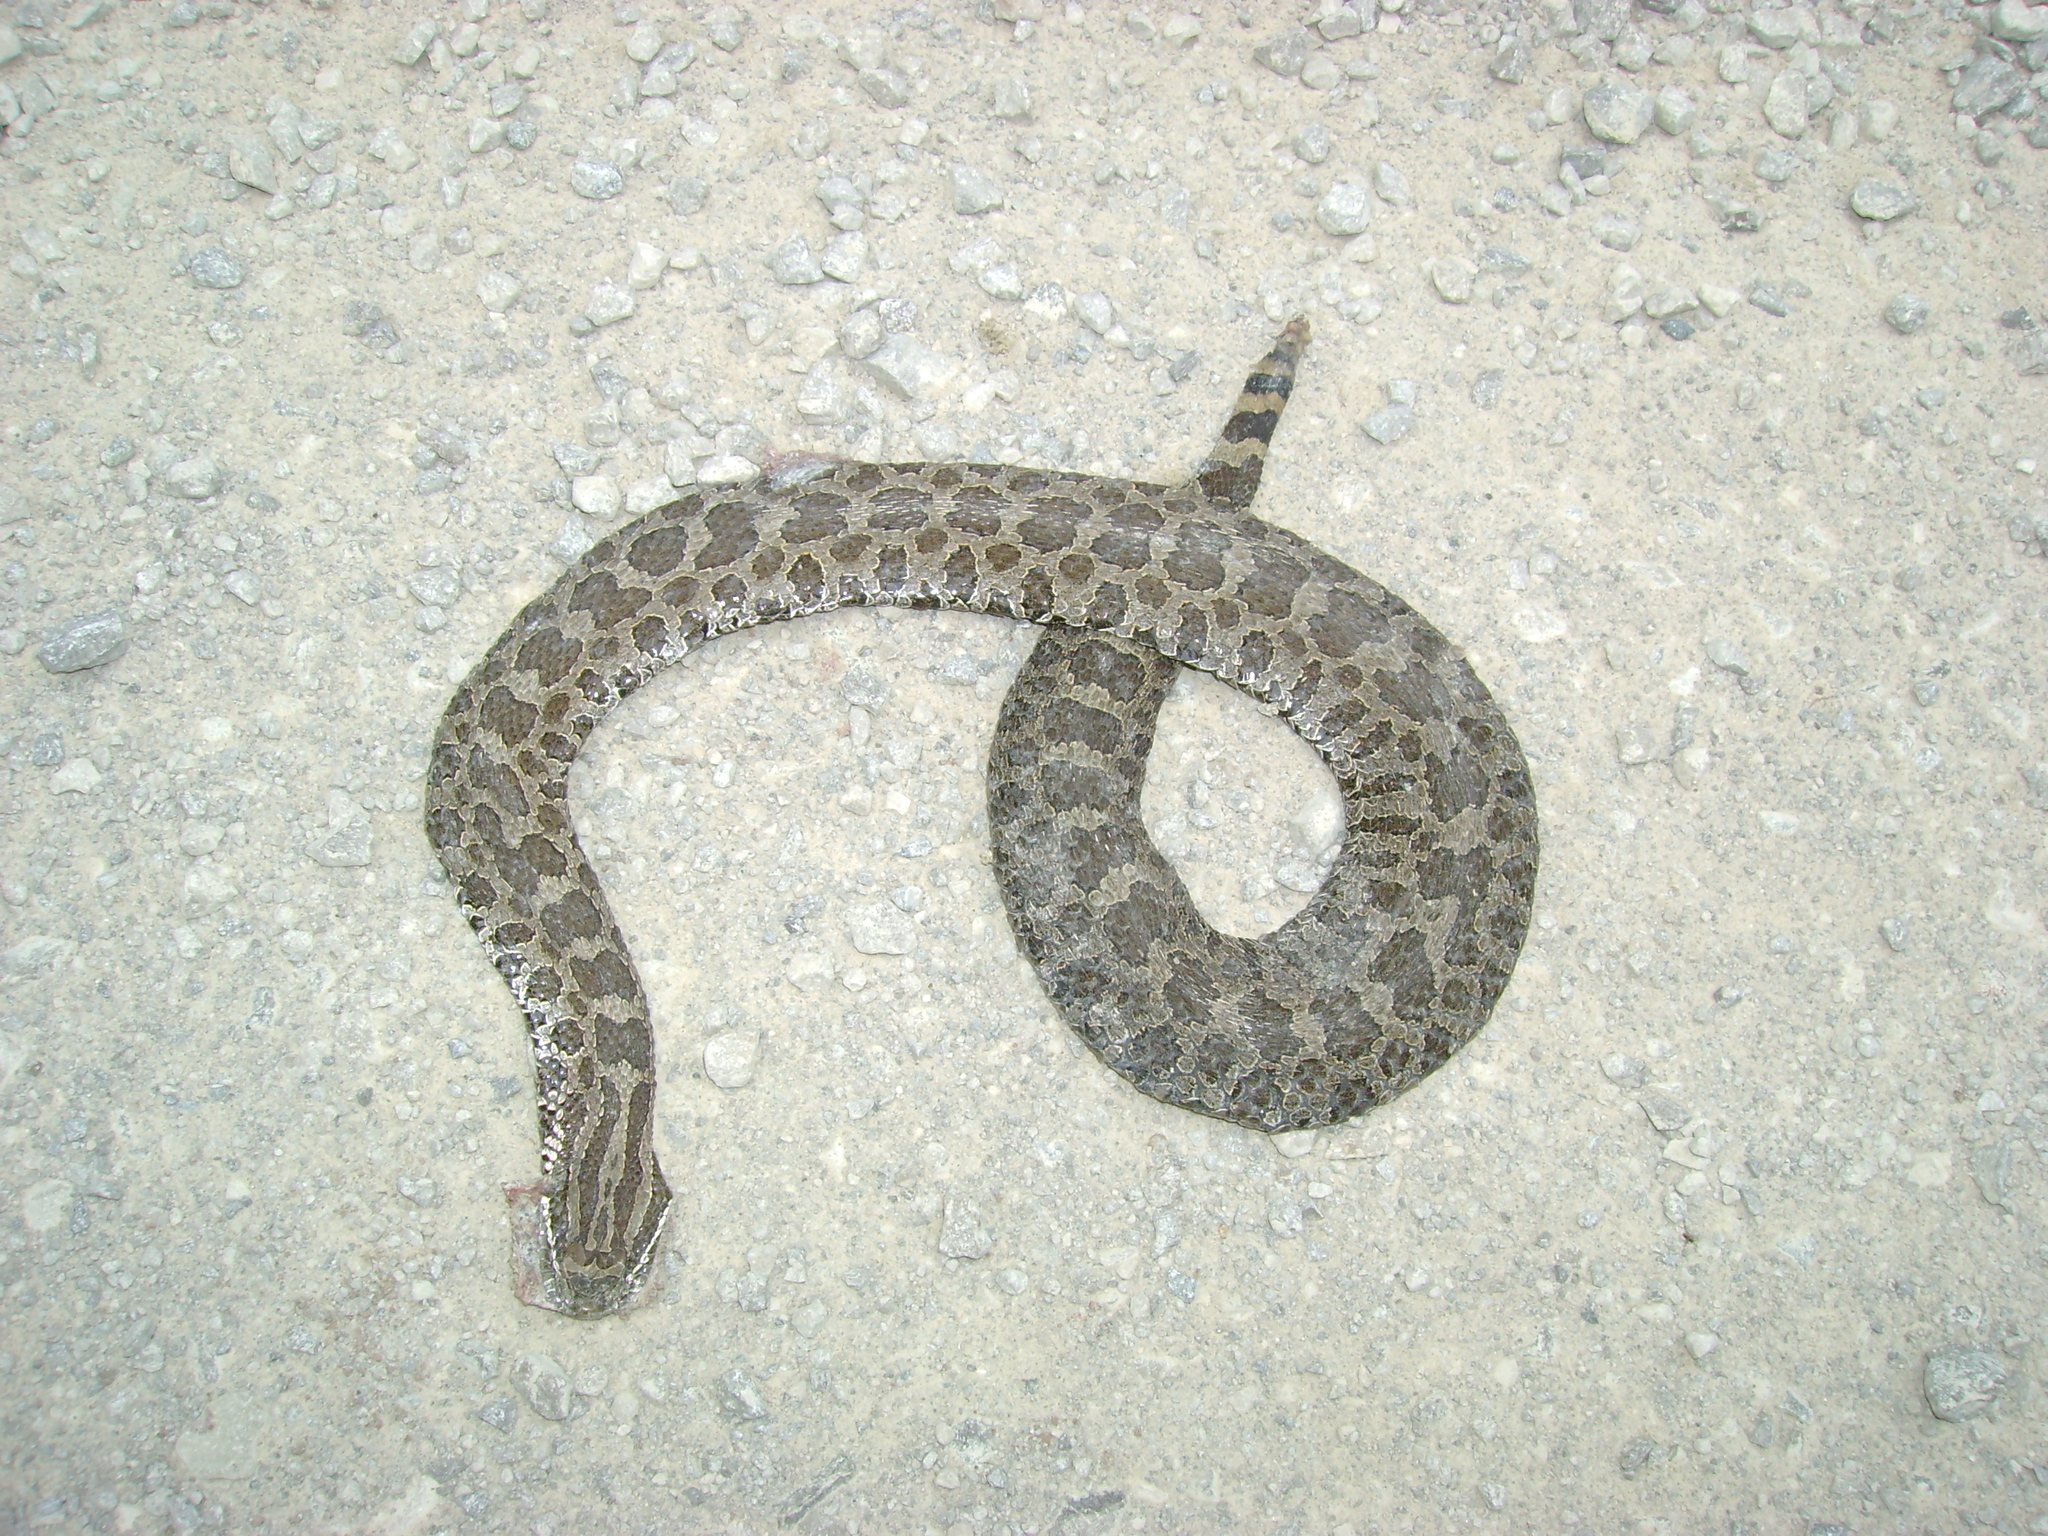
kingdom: Animalia
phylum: Chordata
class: Squamata
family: Viperidae
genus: Sistrurus
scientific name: Sistrurus catenatus
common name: Massasauga
